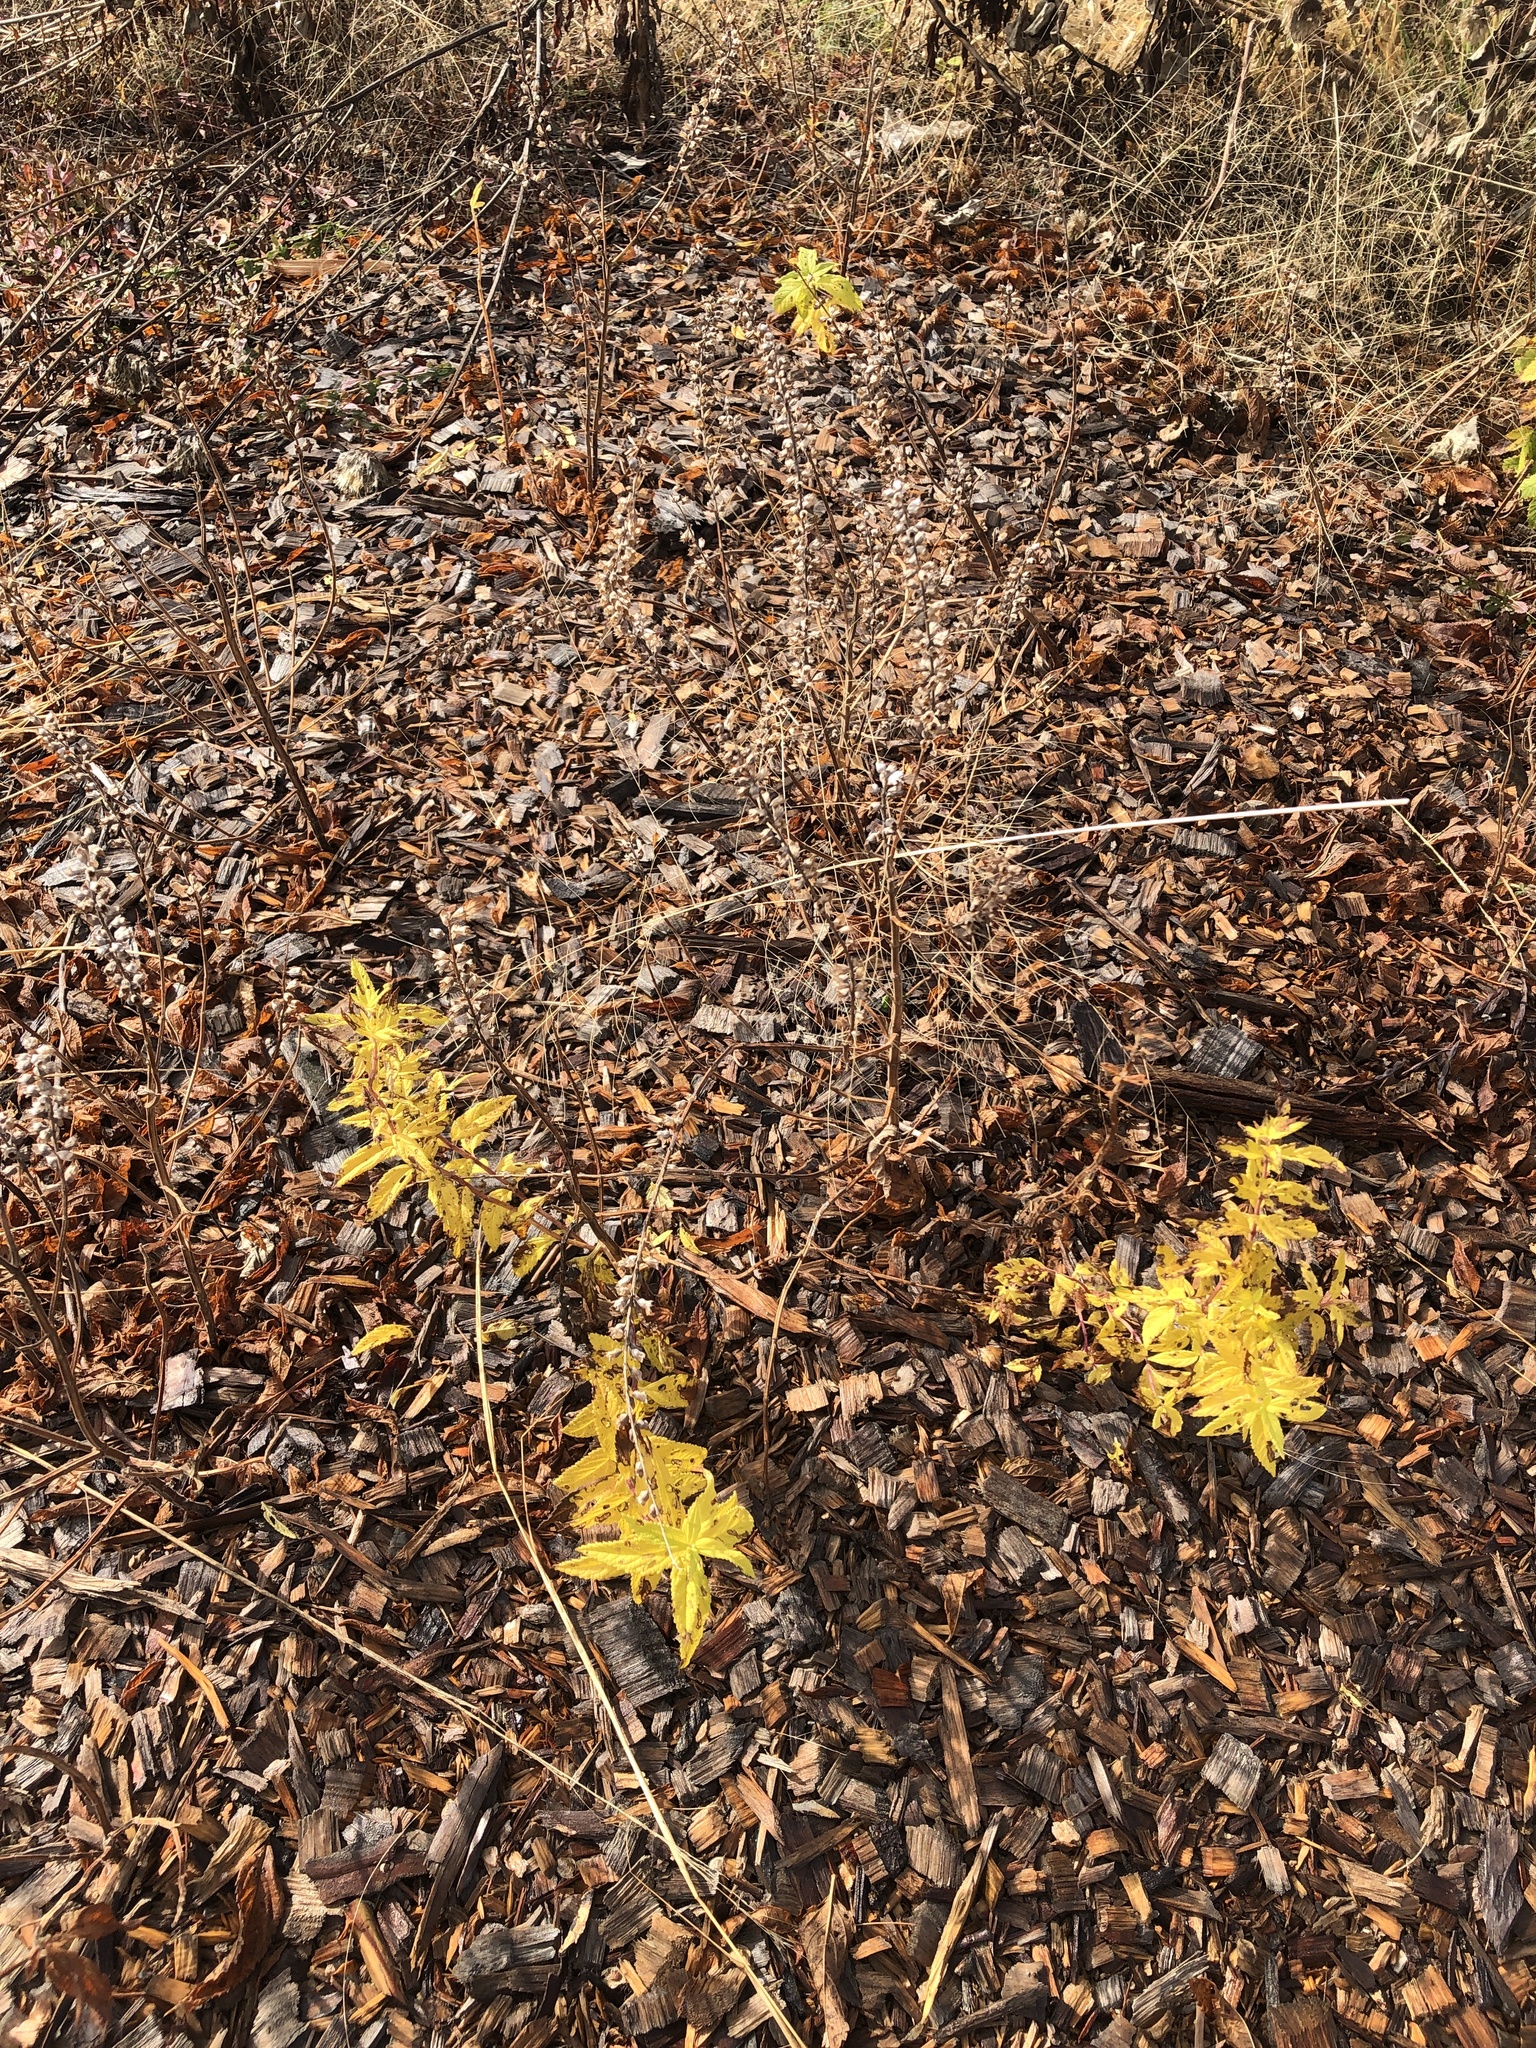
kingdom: Plantae
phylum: Tracheophyta
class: Magnoliopsida
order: Lamiales
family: Lamiaceae
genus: Teucrium
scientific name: Teucrium canadense
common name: American germander
